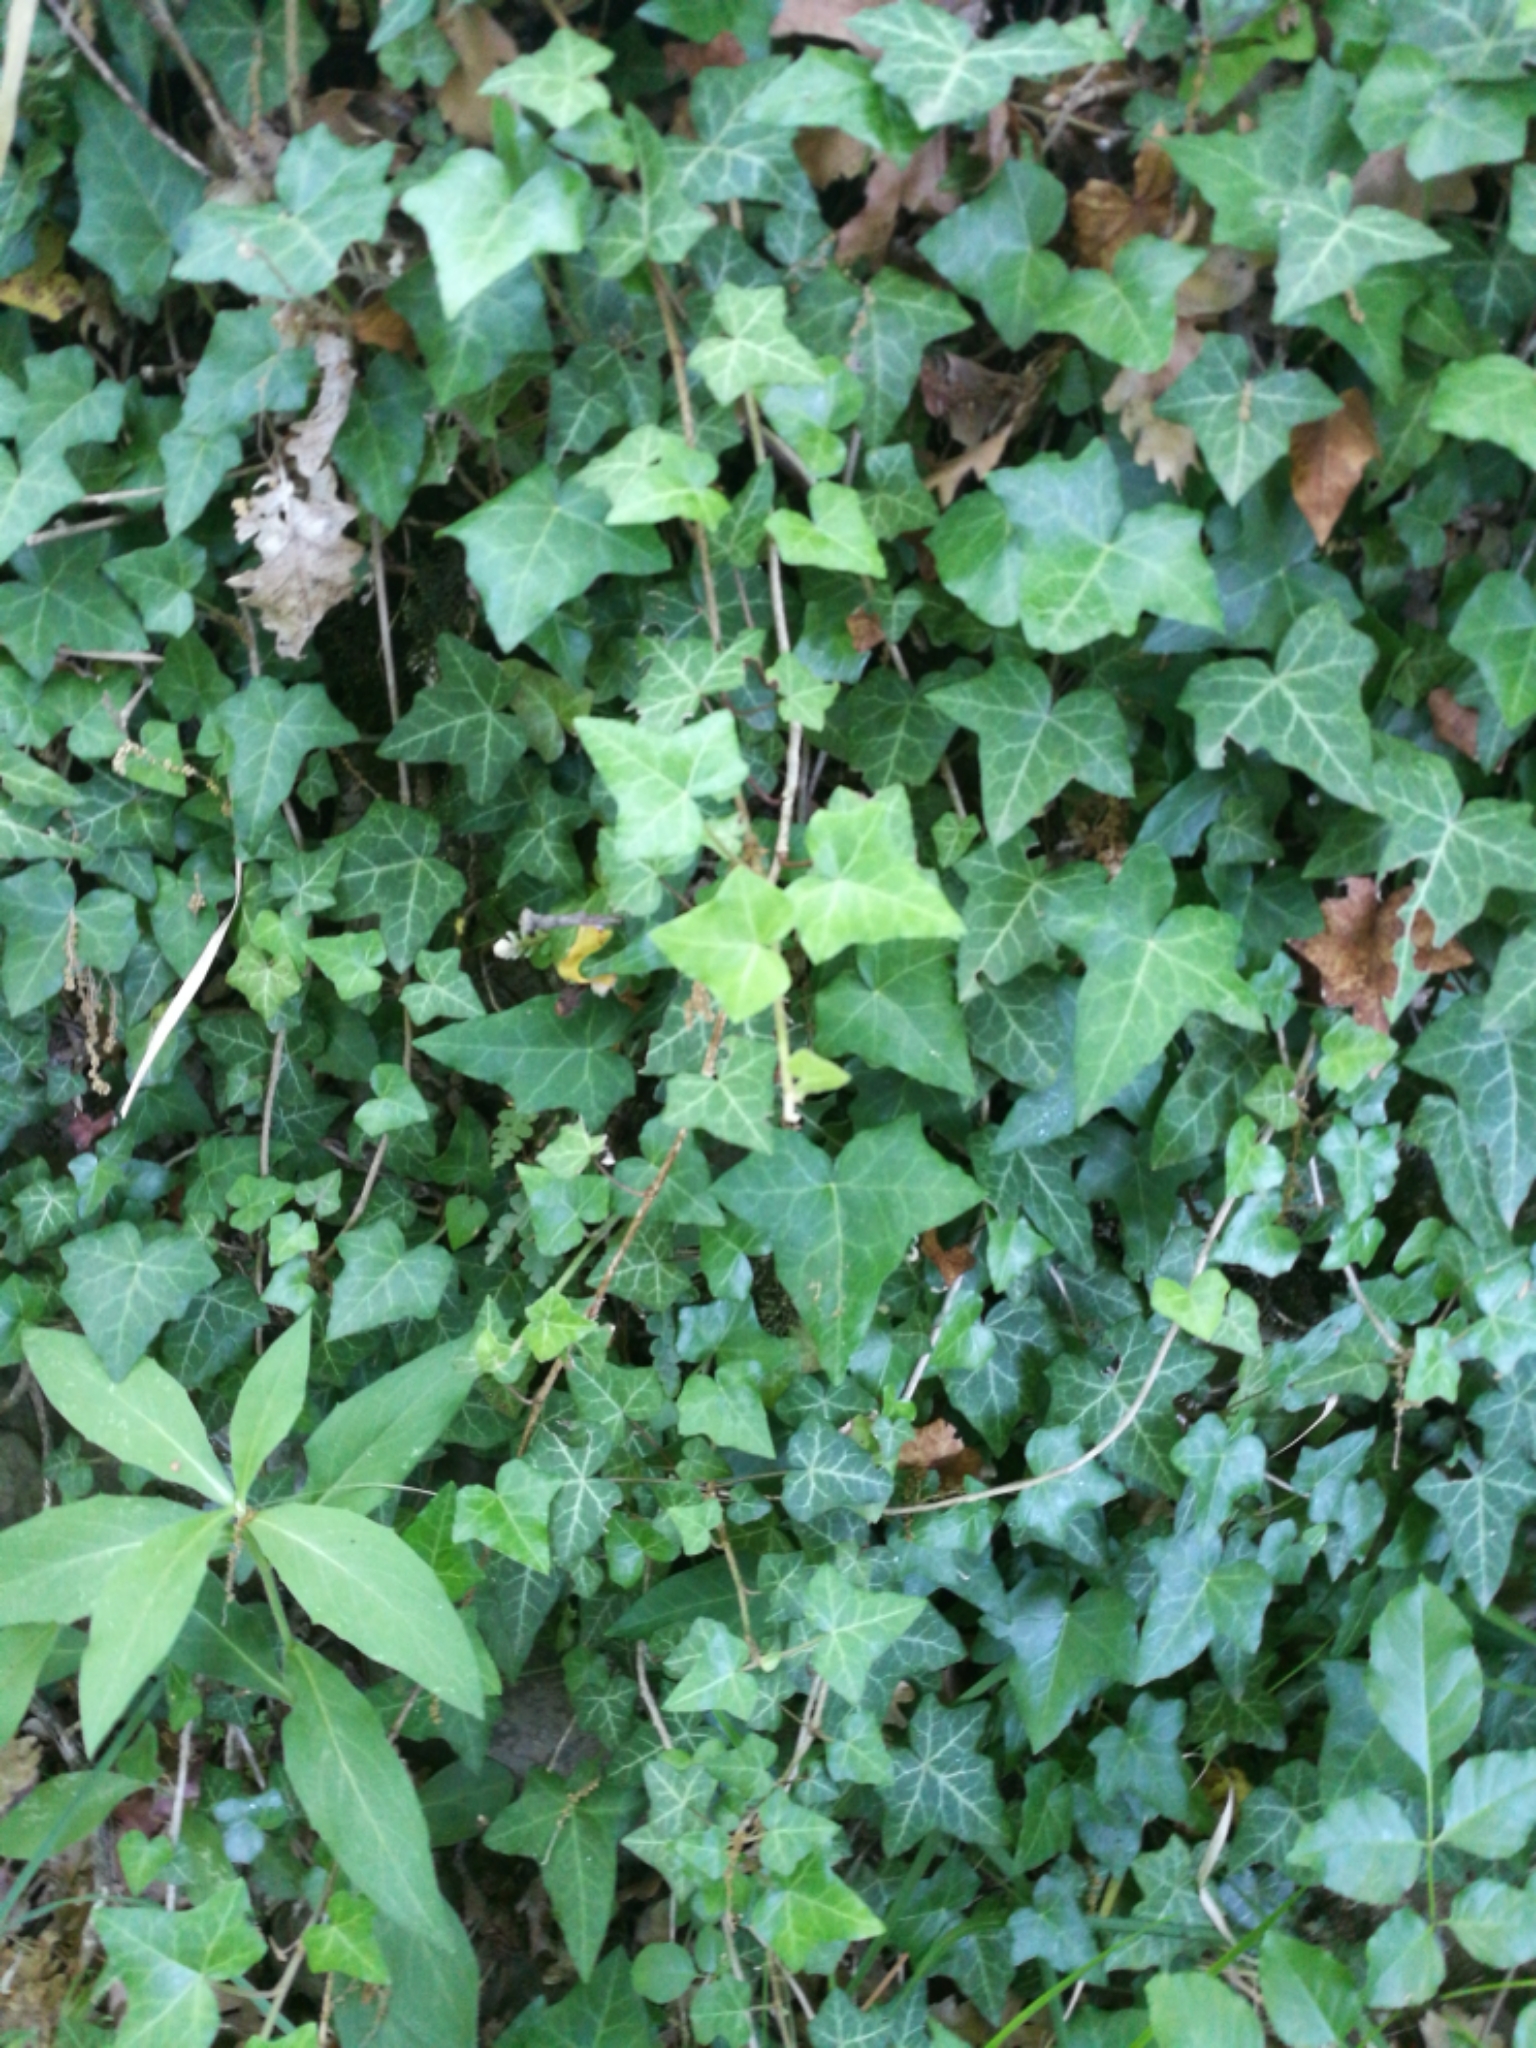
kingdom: Plantae
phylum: Tracheophyta
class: Magnoliopsida
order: Apiales
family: Araliaceae
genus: Hedera
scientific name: Hedera helix
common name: Ivy
